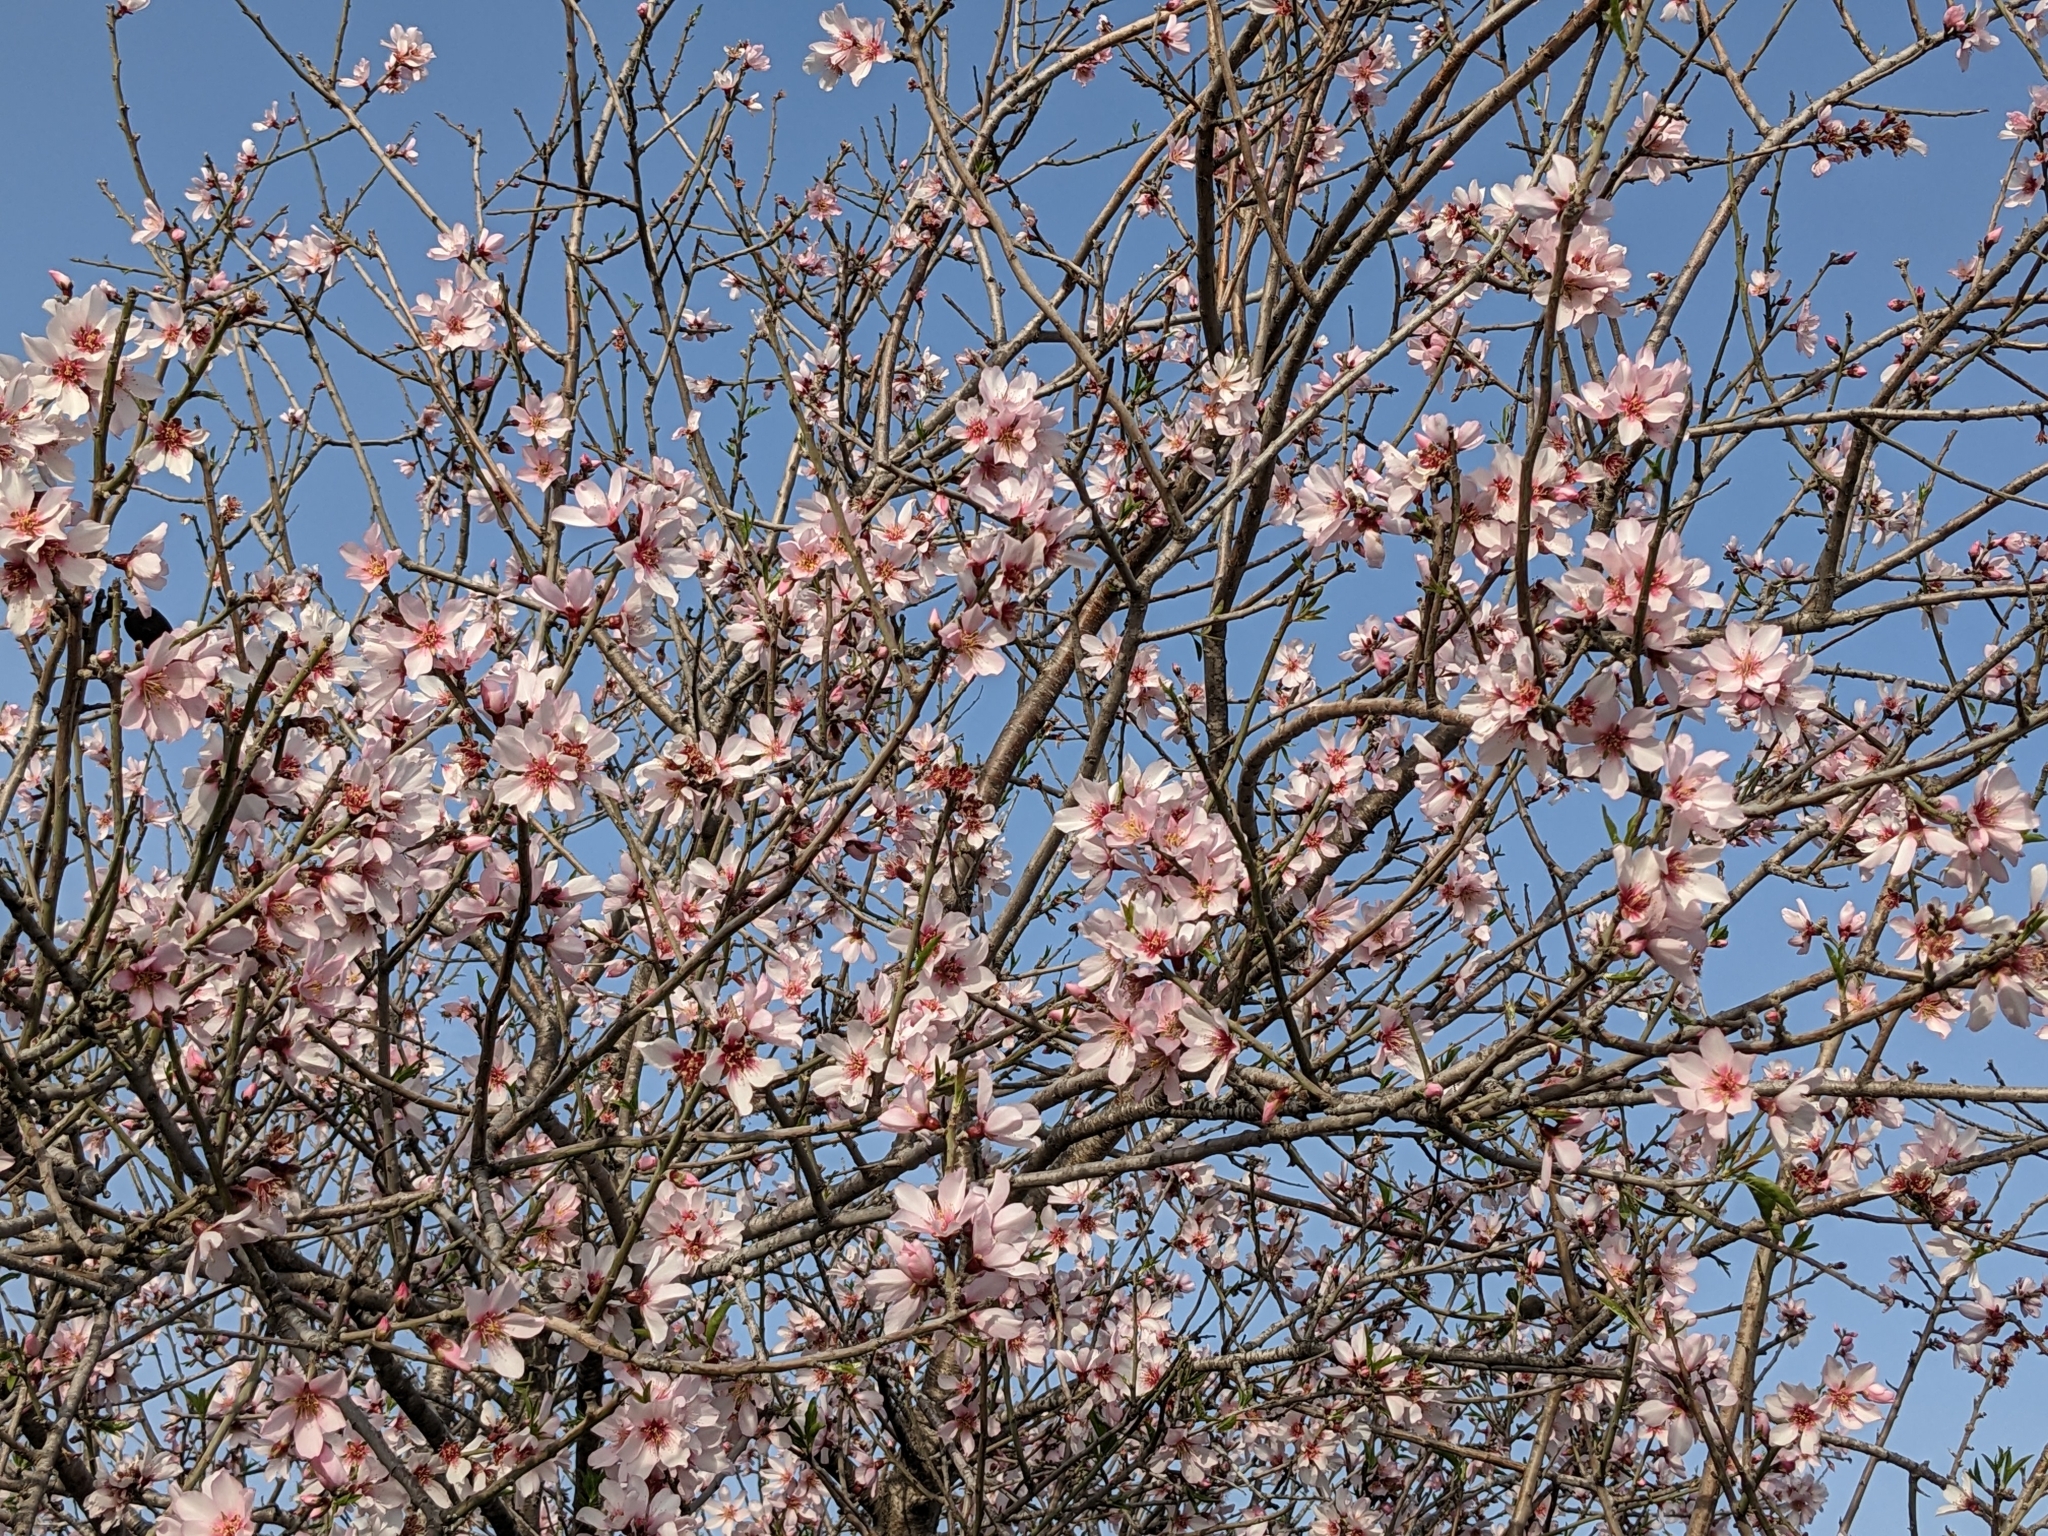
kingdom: Plantae
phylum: Tracheophyta
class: Magnoliopsida
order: Rosales
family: Rosaceae
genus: Prunus
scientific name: Prunus amygdalus
